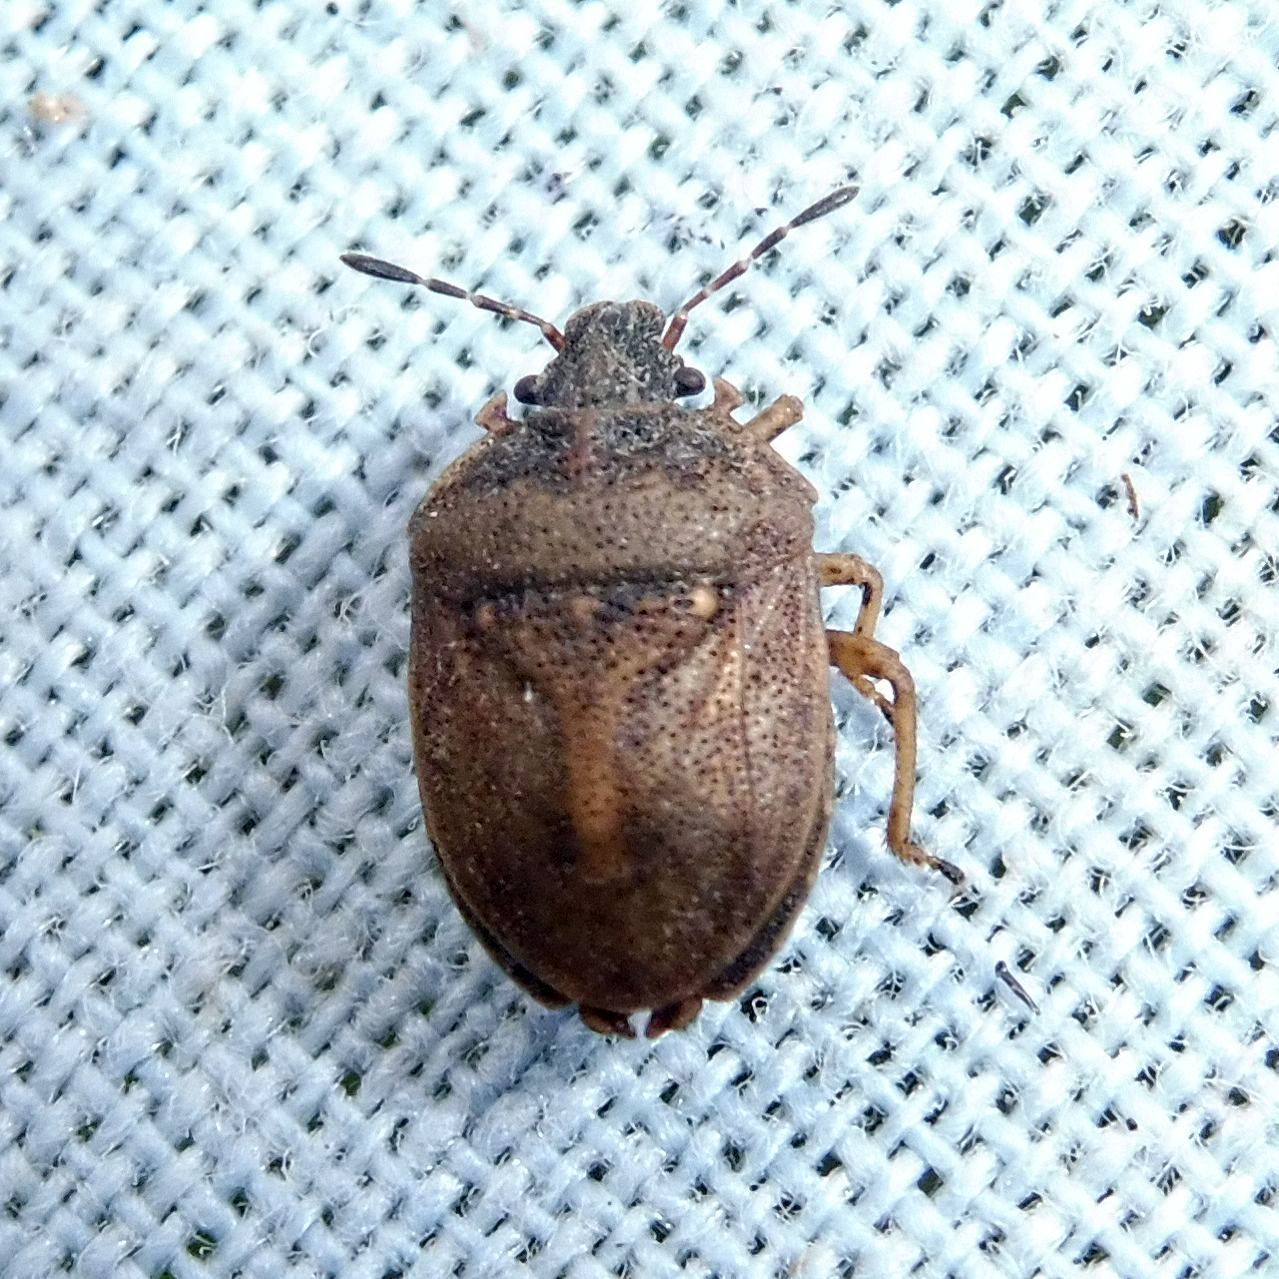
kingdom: Animalia
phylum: Arthropoda
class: Insecta
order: Hemiptera
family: Pentatomidae
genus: Podops
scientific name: Podops inunctus
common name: Turtle bug
